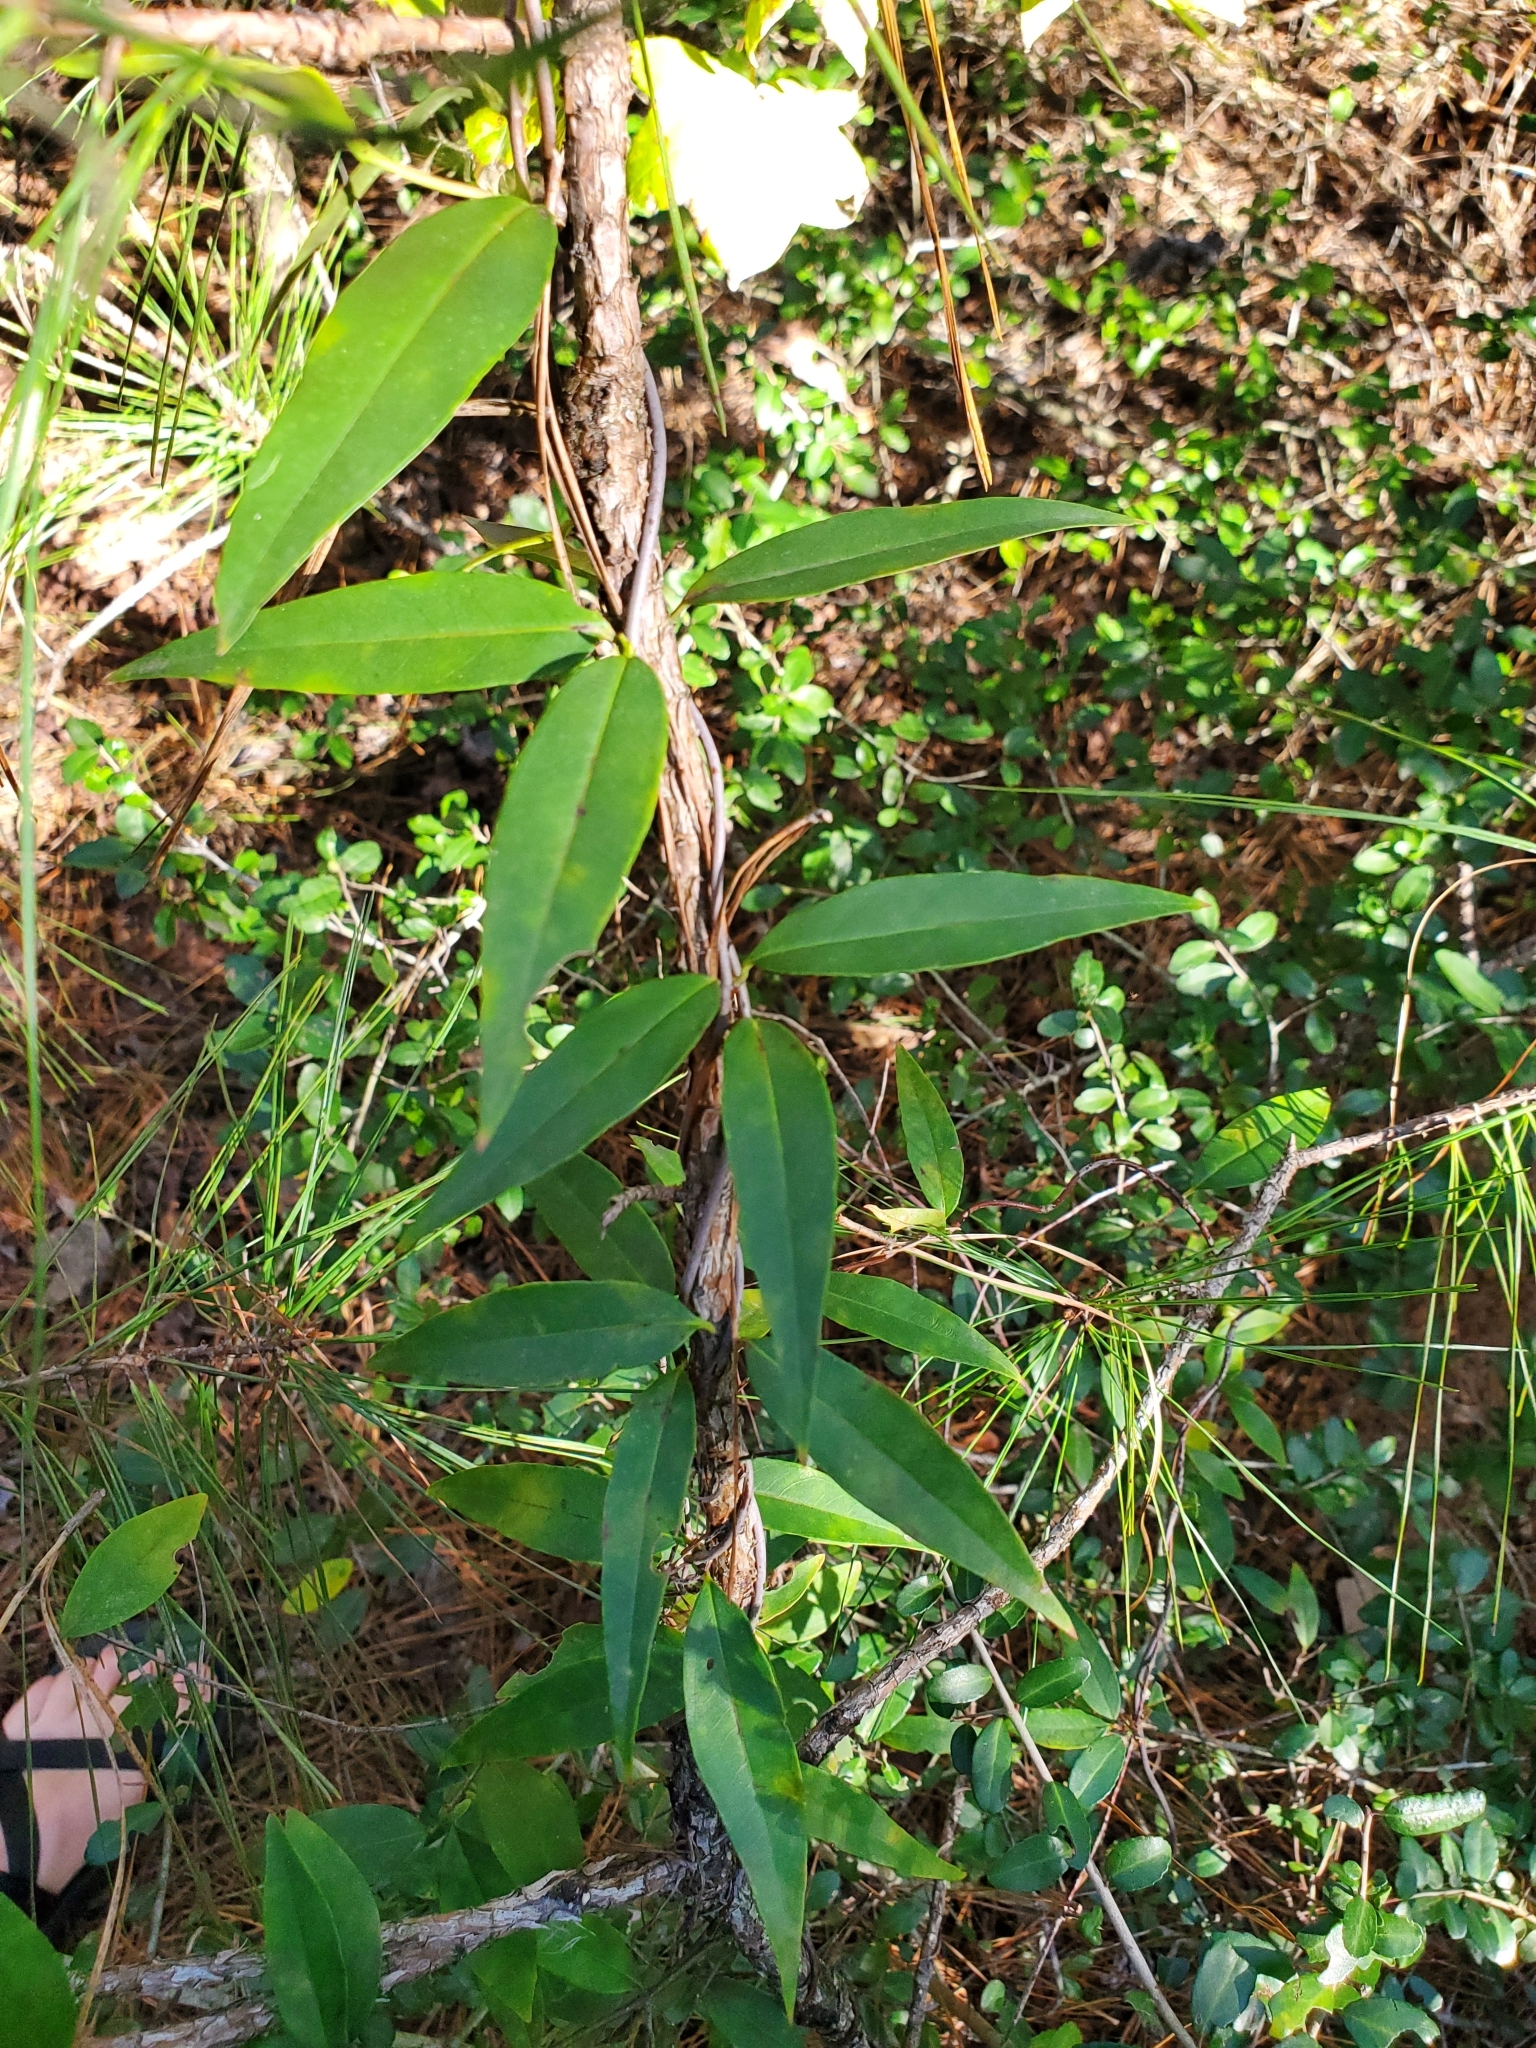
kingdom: Plantae
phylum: Tracheophyta
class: Magnoliopsida
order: Gentianales
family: Gelsemiaceae
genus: Gelsemium
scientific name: Gelsemium sempervirens
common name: Carolina-jasmine
